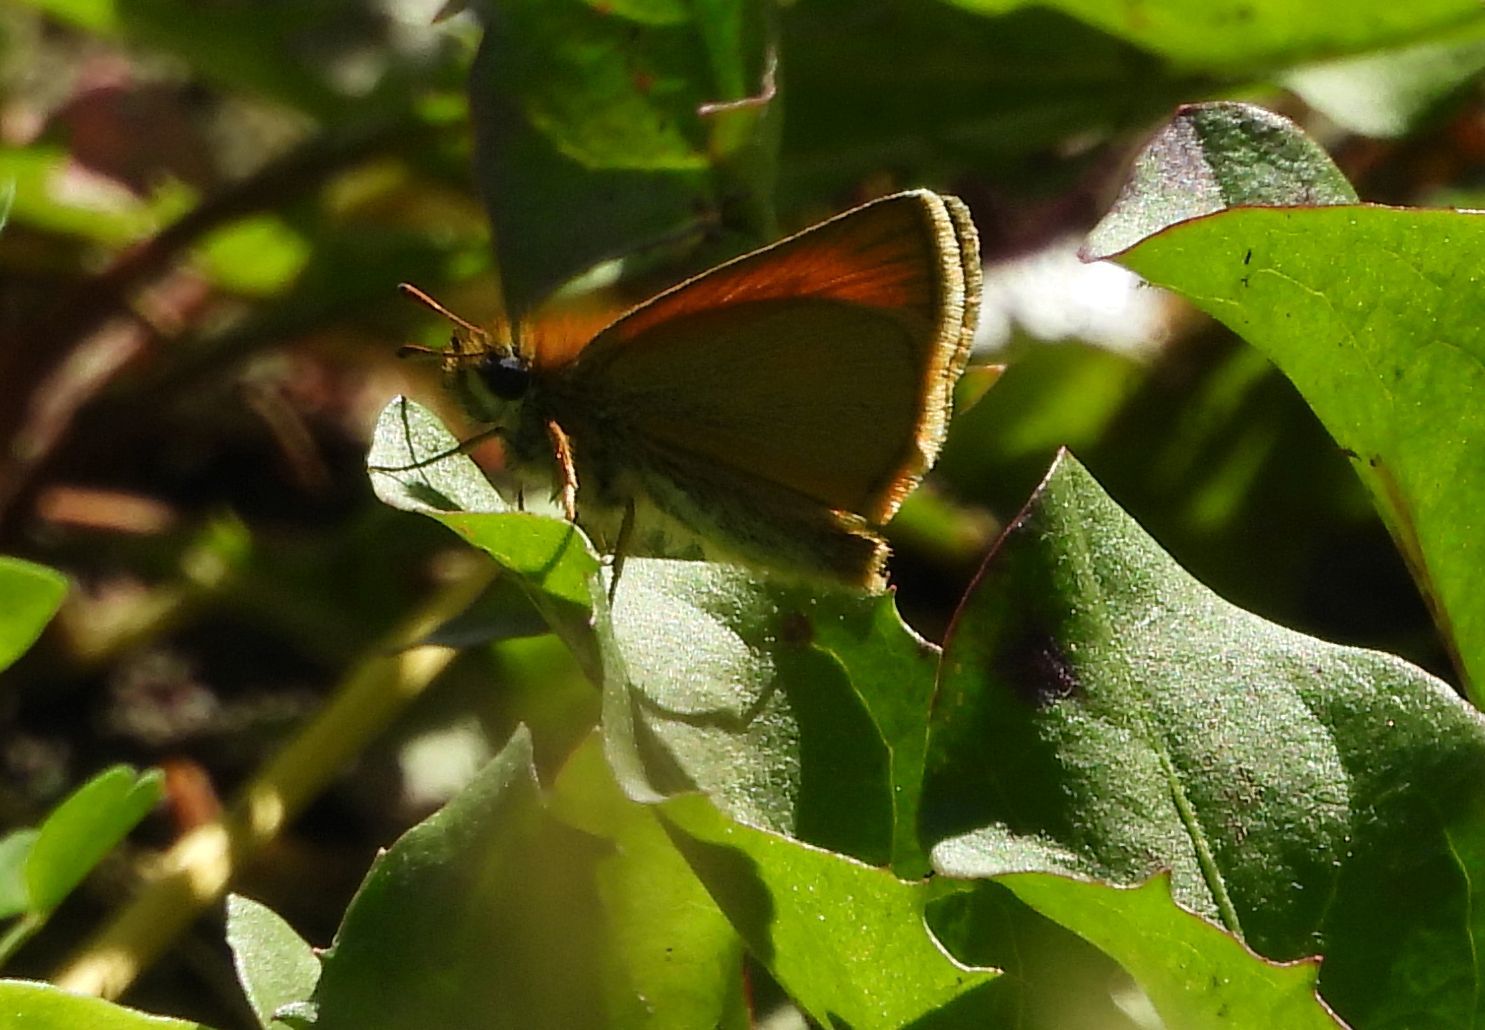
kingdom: Animalia
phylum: Arthropoda
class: Insecta
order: Lepidoptera
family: Hesperiidae
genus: Thymelicus
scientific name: Thymelicus lineola
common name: Essex skipper
